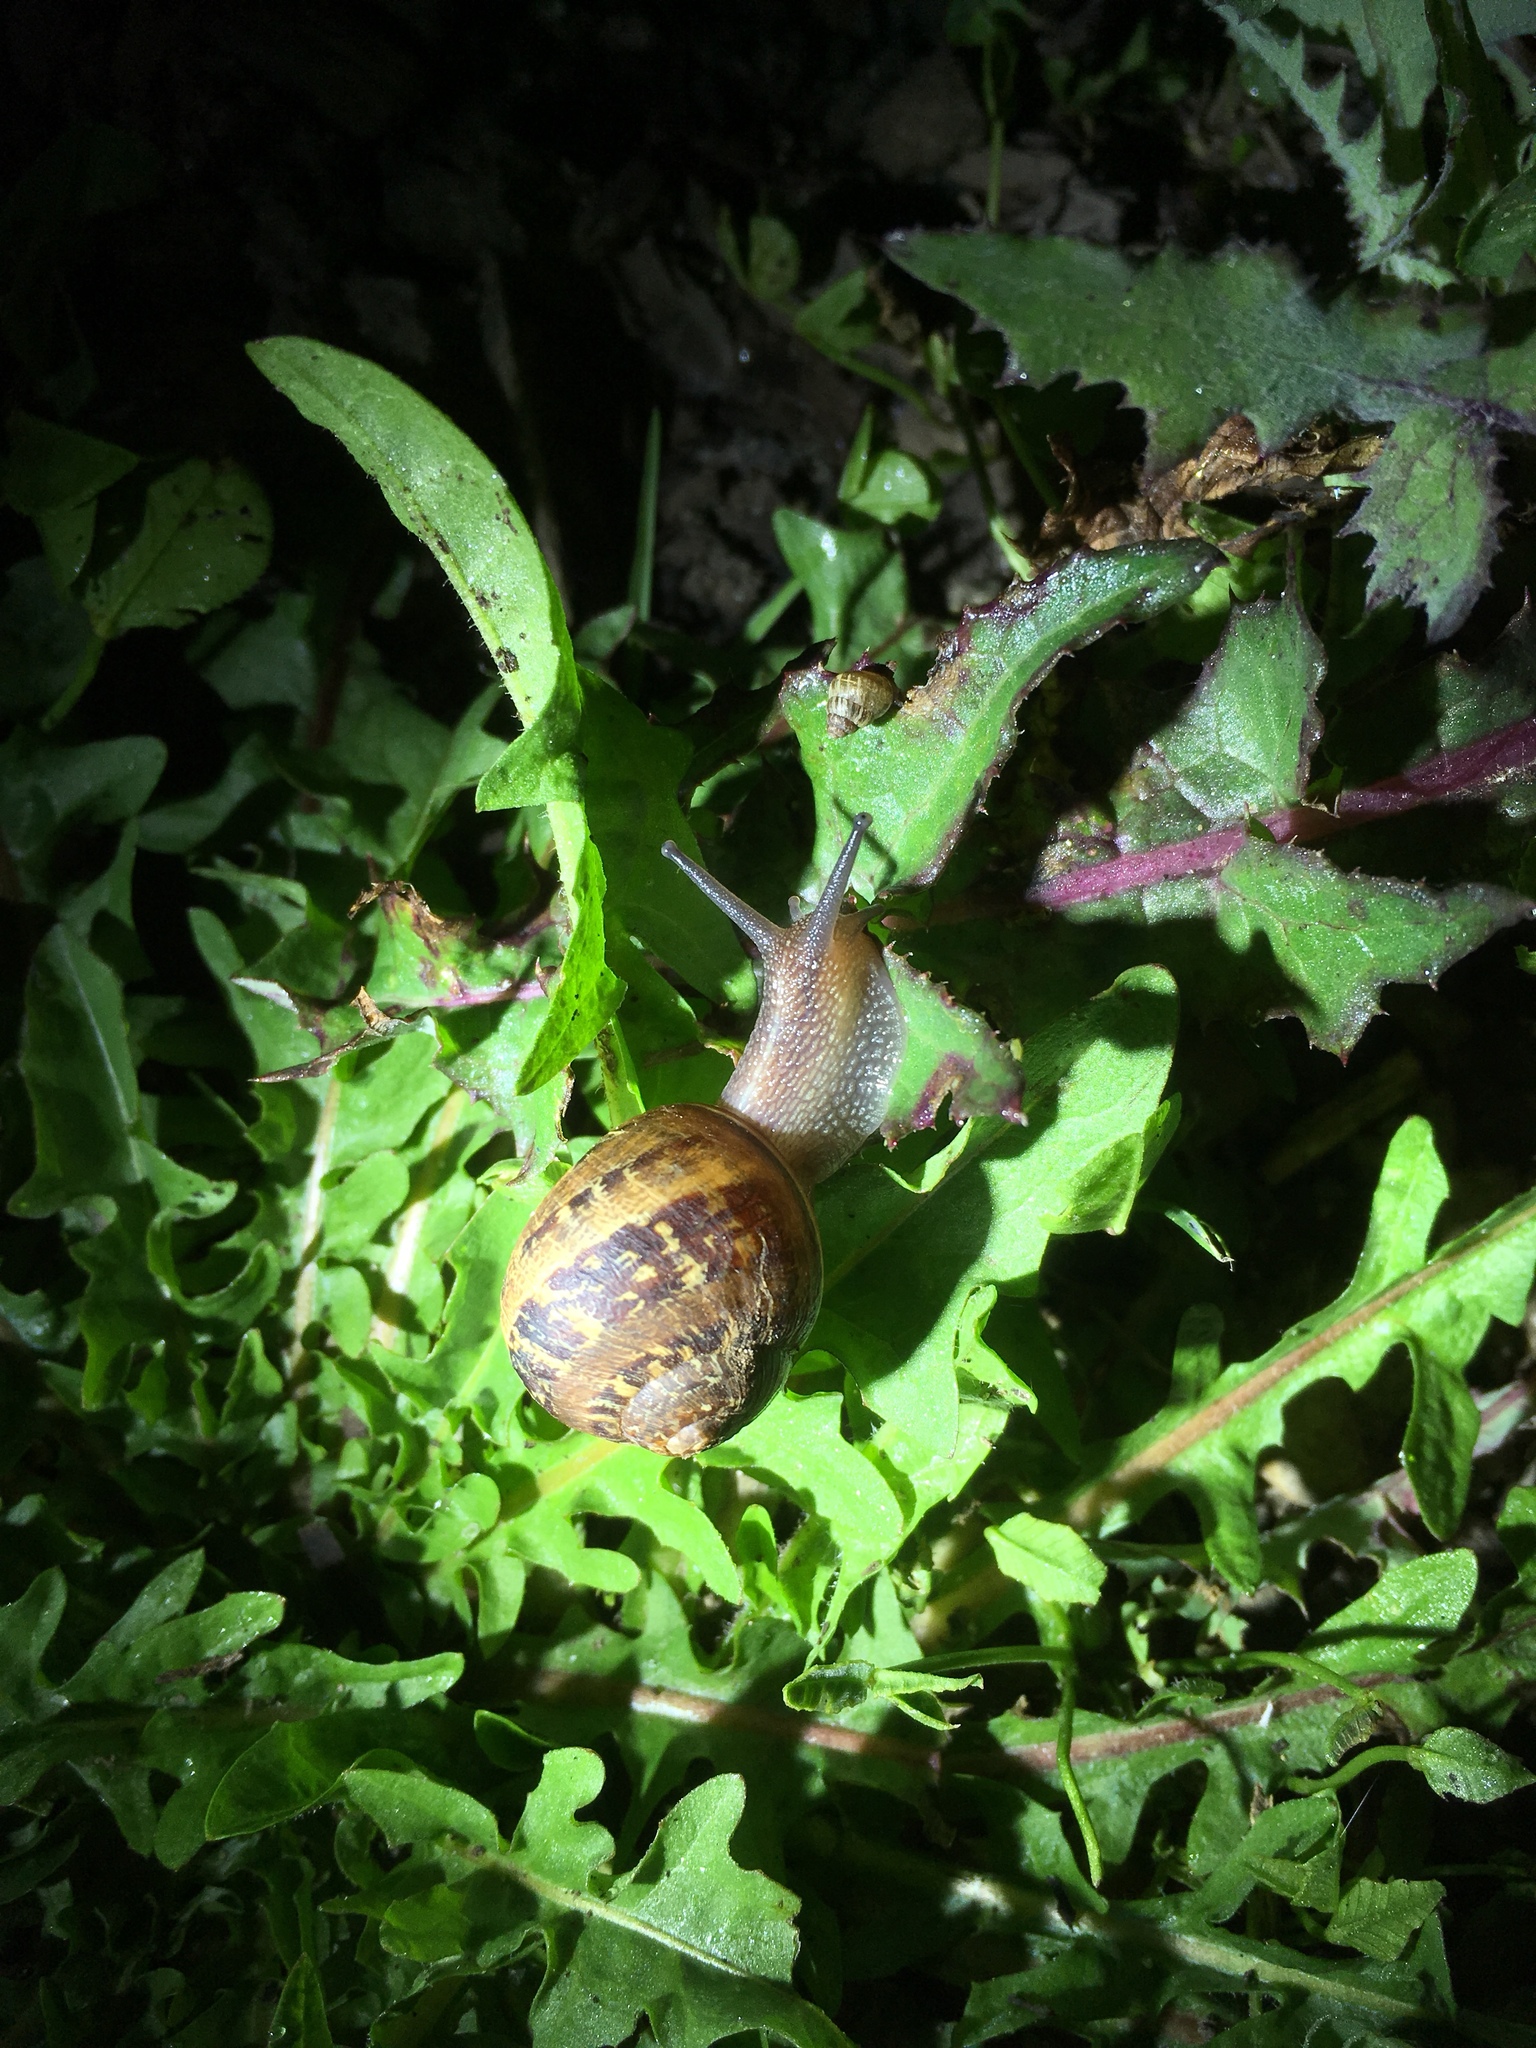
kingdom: Animalia
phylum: Mollusca
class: Gastropoda
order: Stylommatophora
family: Helicidae
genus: Cornu
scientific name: Cornu aspersum
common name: Brown garden snail
